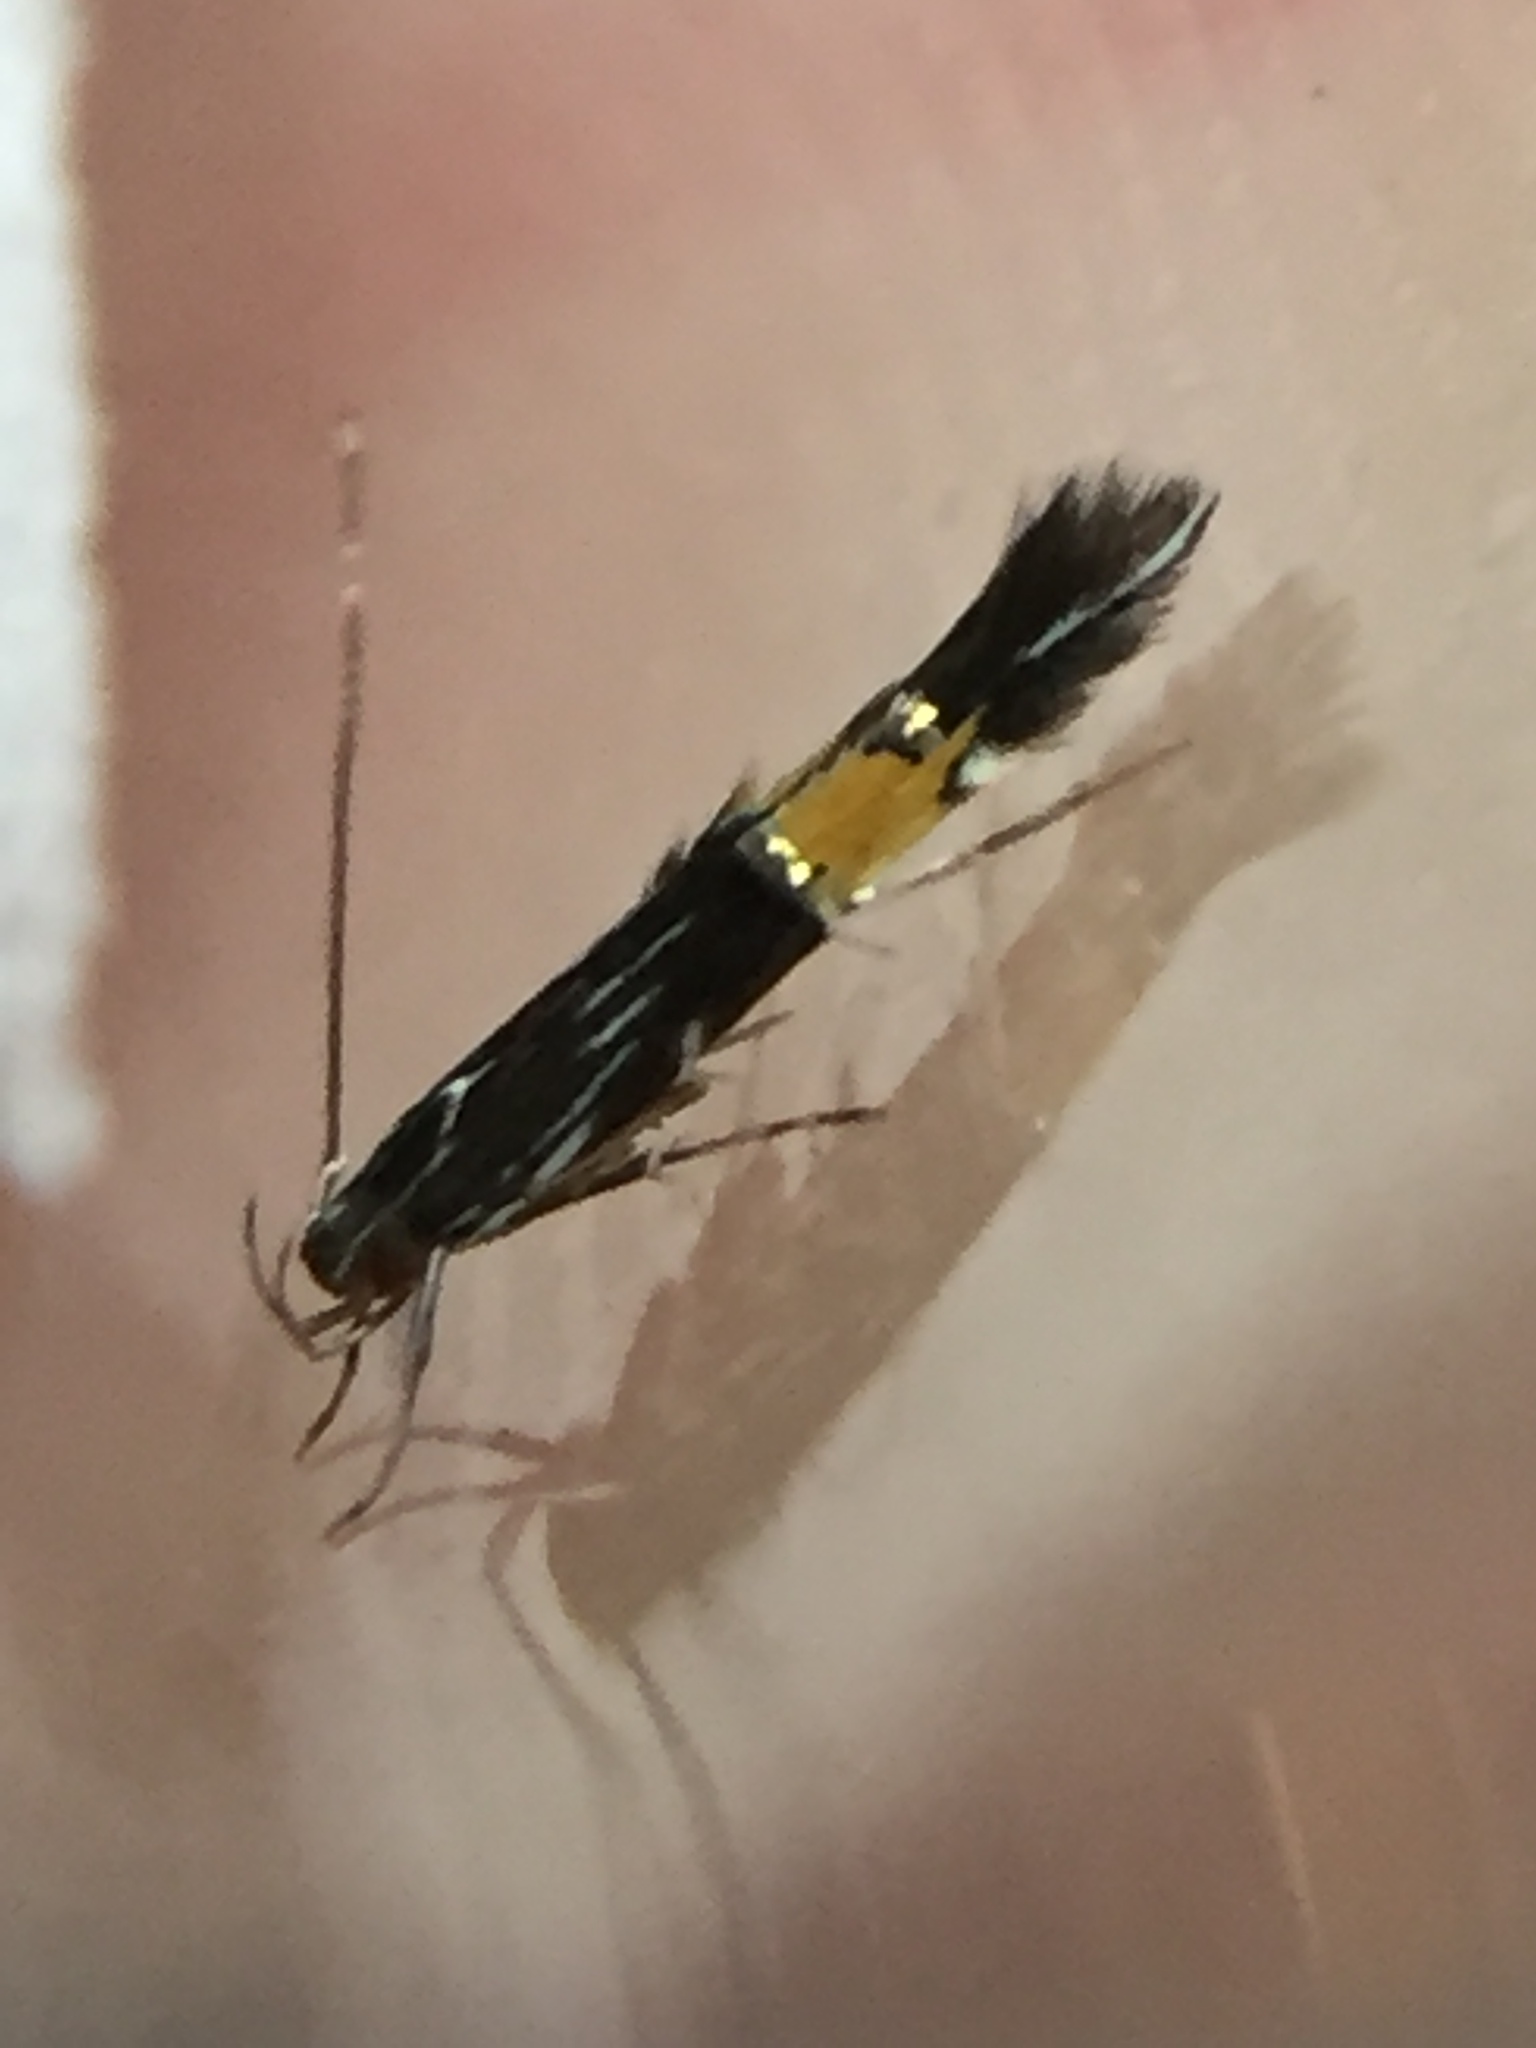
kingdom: Animalia
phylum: Arthropoda
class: Insecta
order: Lepidoptera
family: Cosmopterigidae
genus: Cosmopterix
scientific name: Cosmopterix attenuatella
